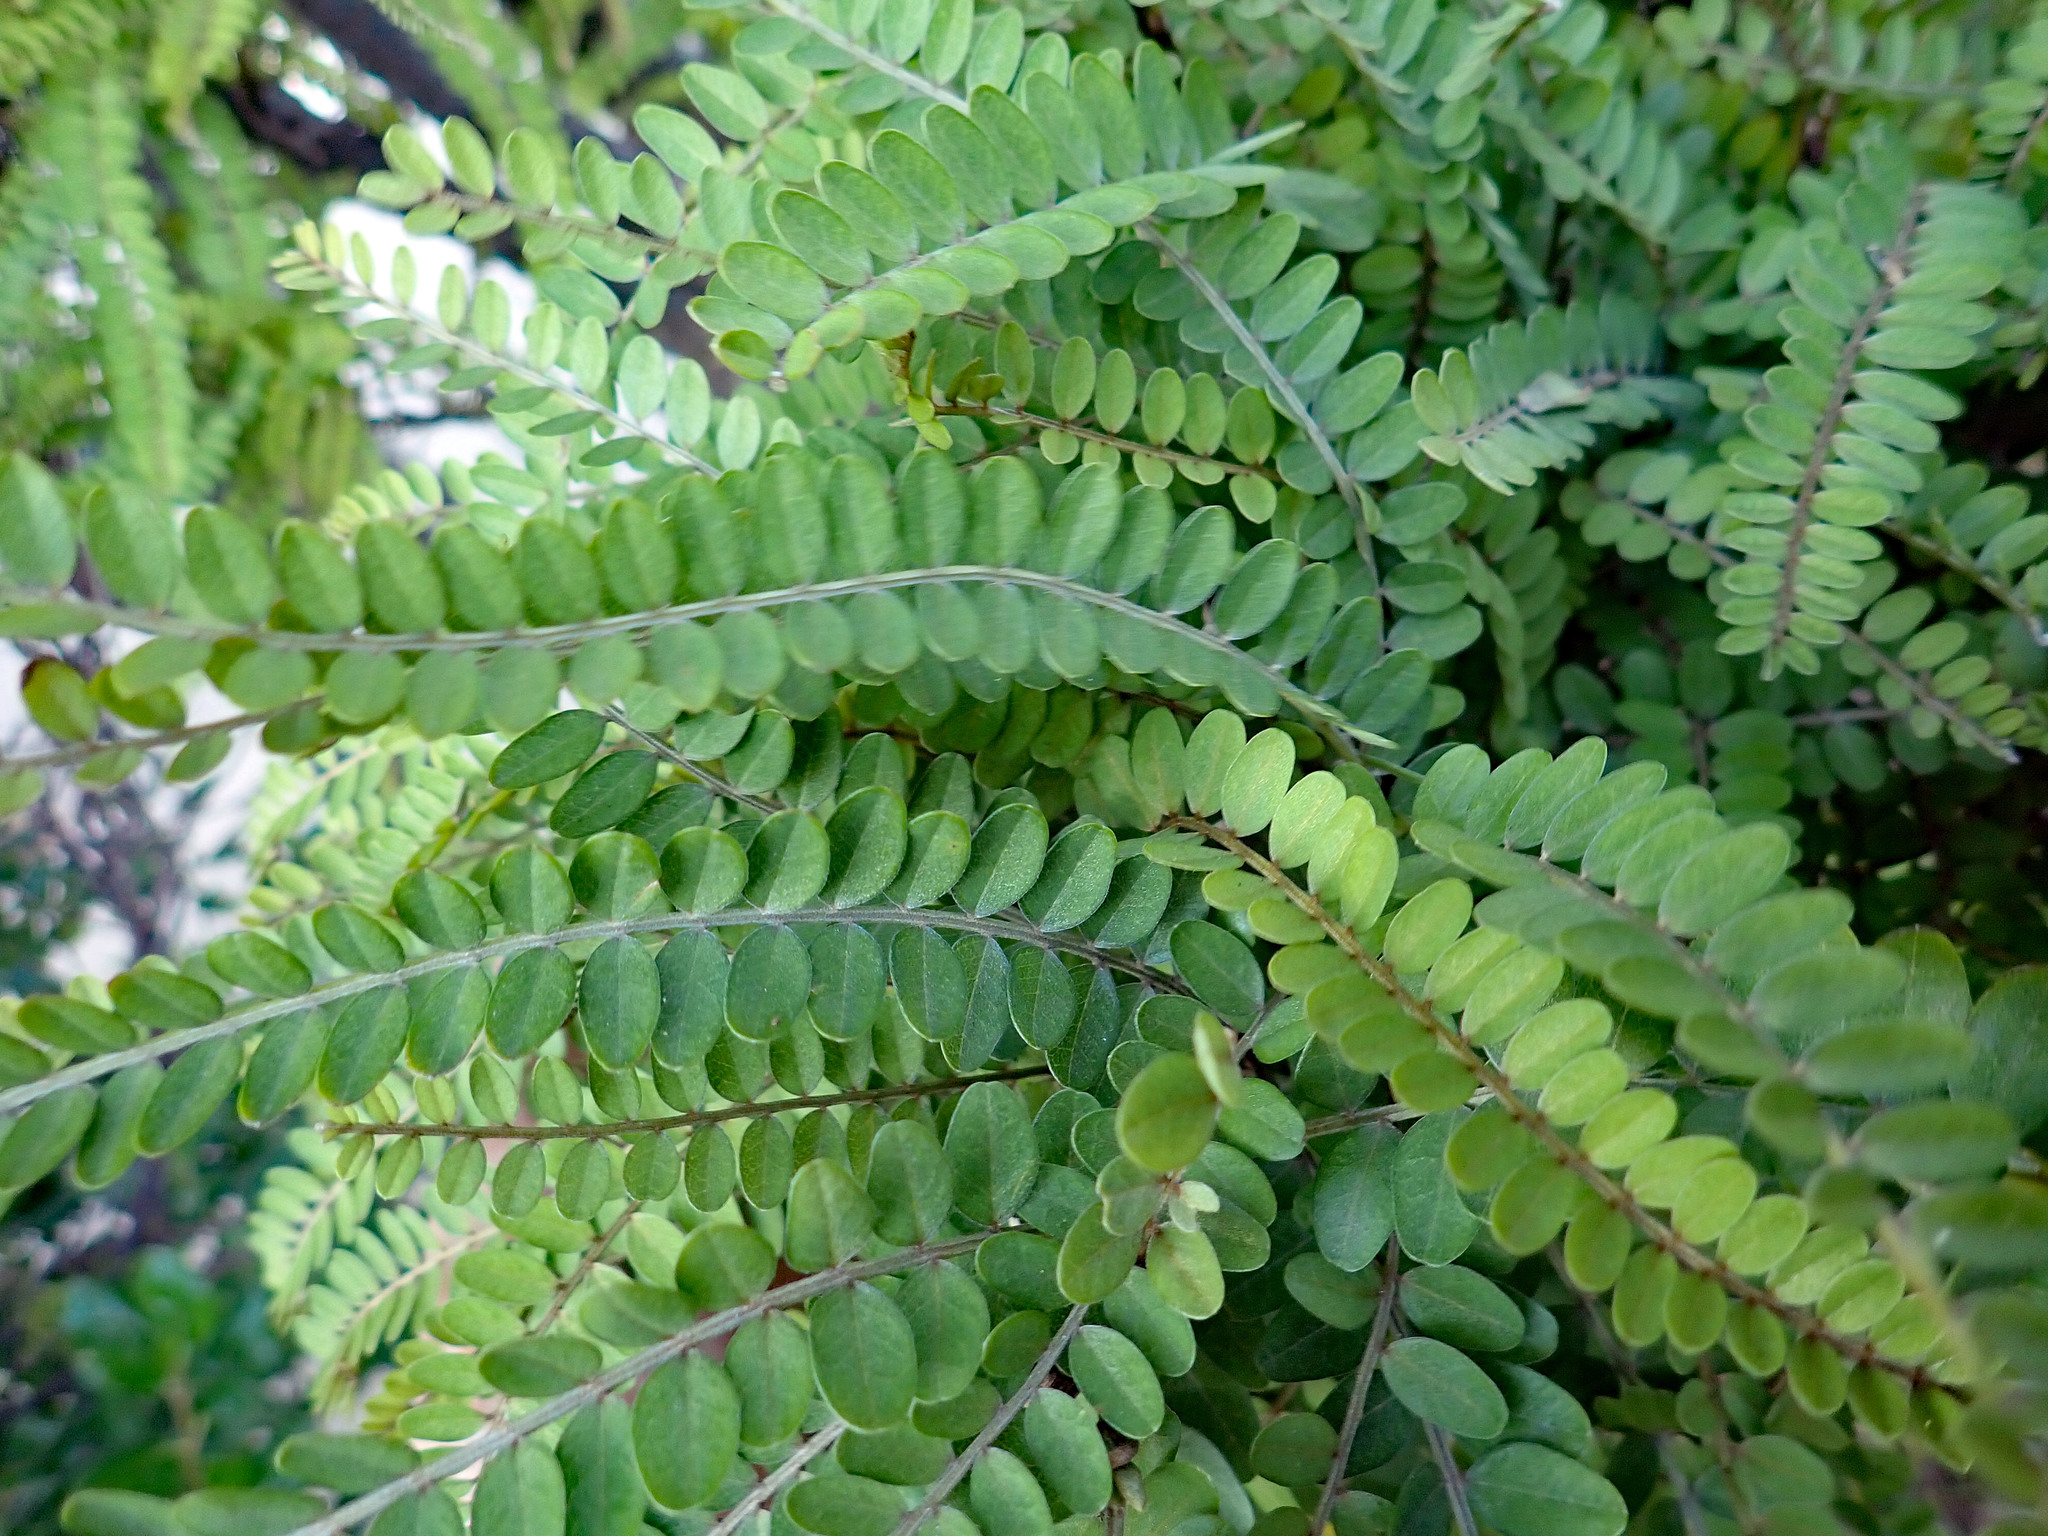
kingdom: Plantae
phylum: Tracheophyta
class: Magnoliopsida
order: Fabales
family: Fabaceae
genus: Sophora
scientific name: Sophora chathamica
